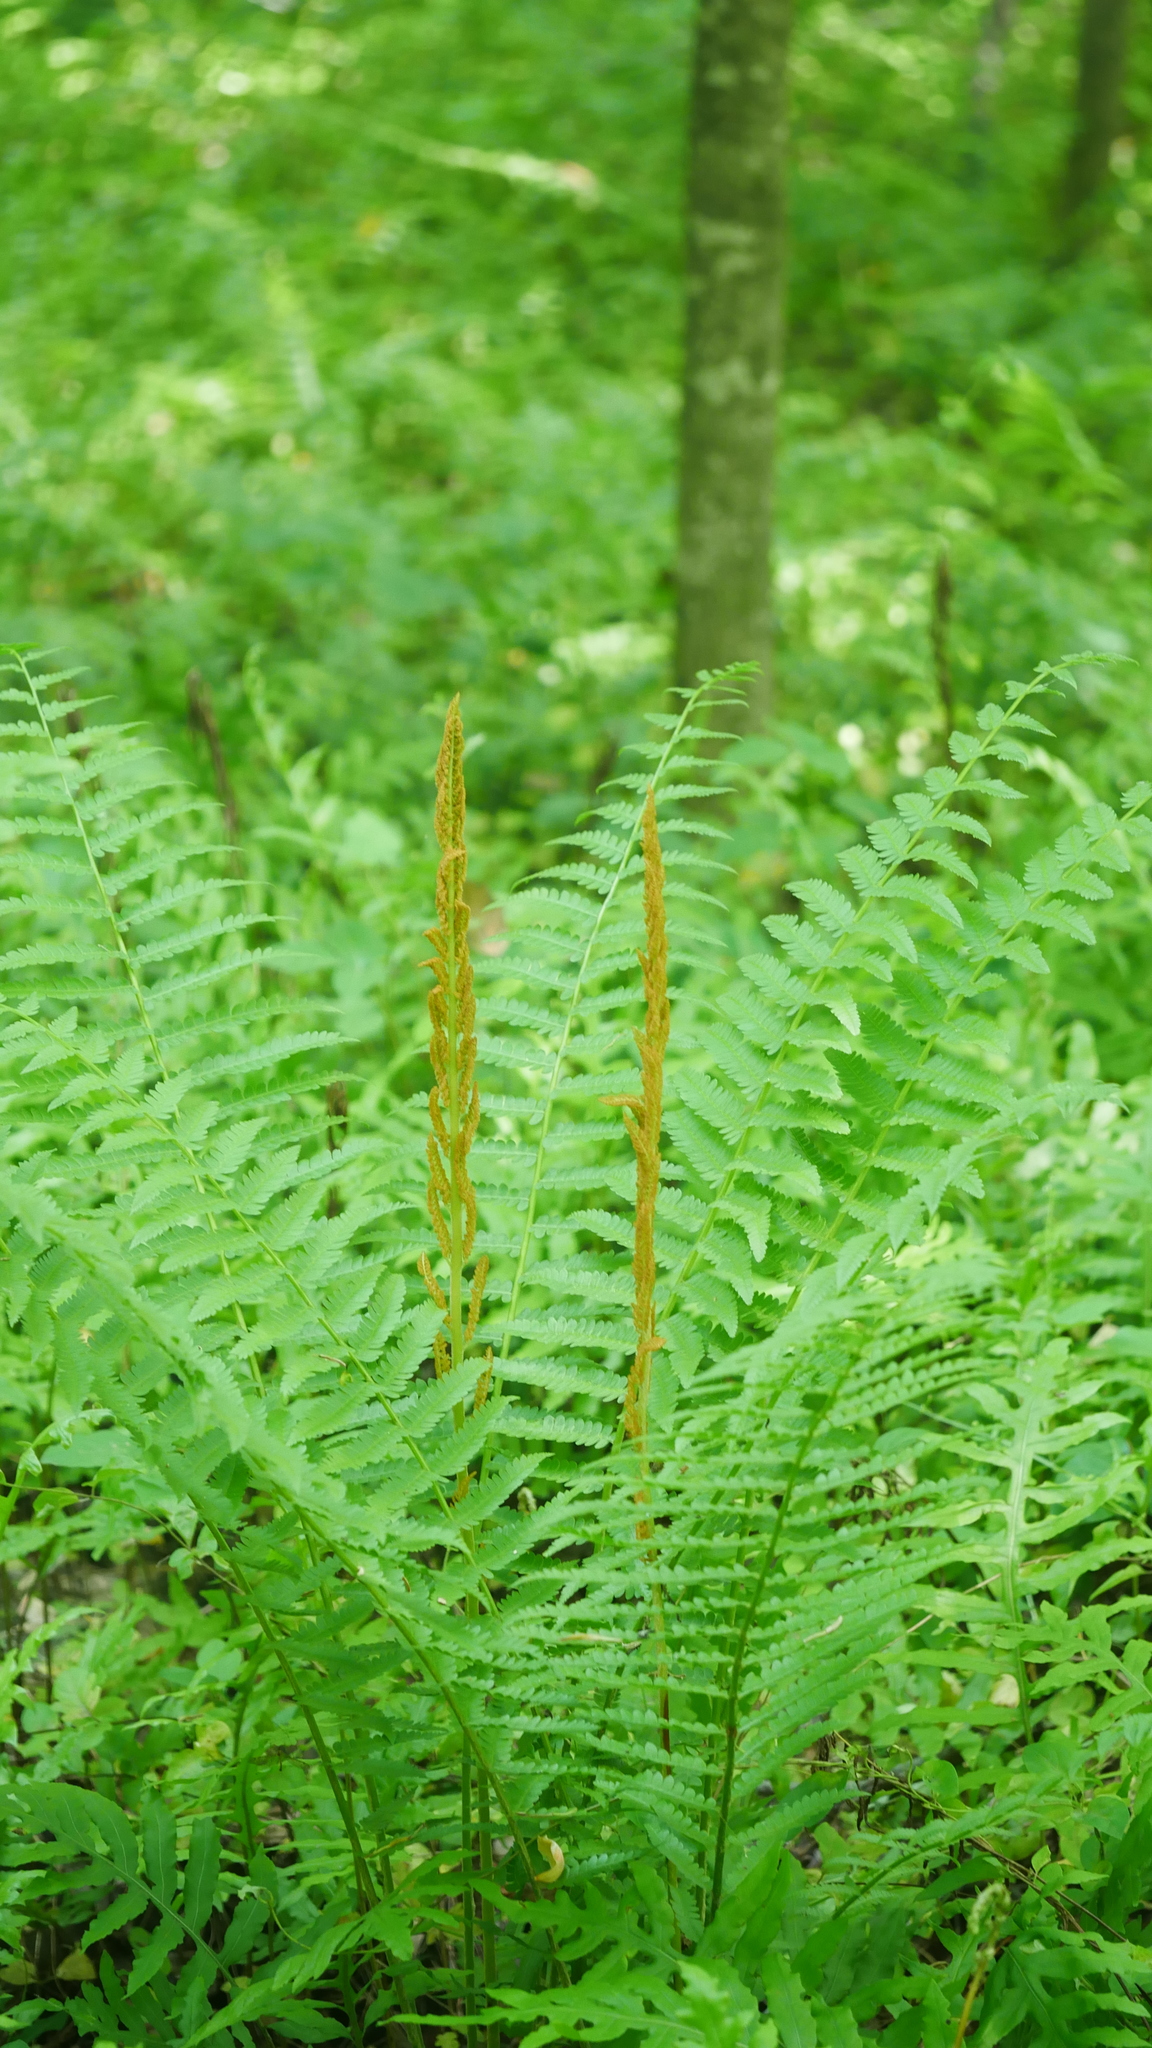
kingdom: Plantae
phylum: Tracheophyta
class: Polypodiopsida
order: Osmundales
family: Osmundaceae
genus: Osmundastrum
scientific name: Osmundastrum cinnamomeum
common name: Cinnamon fern
